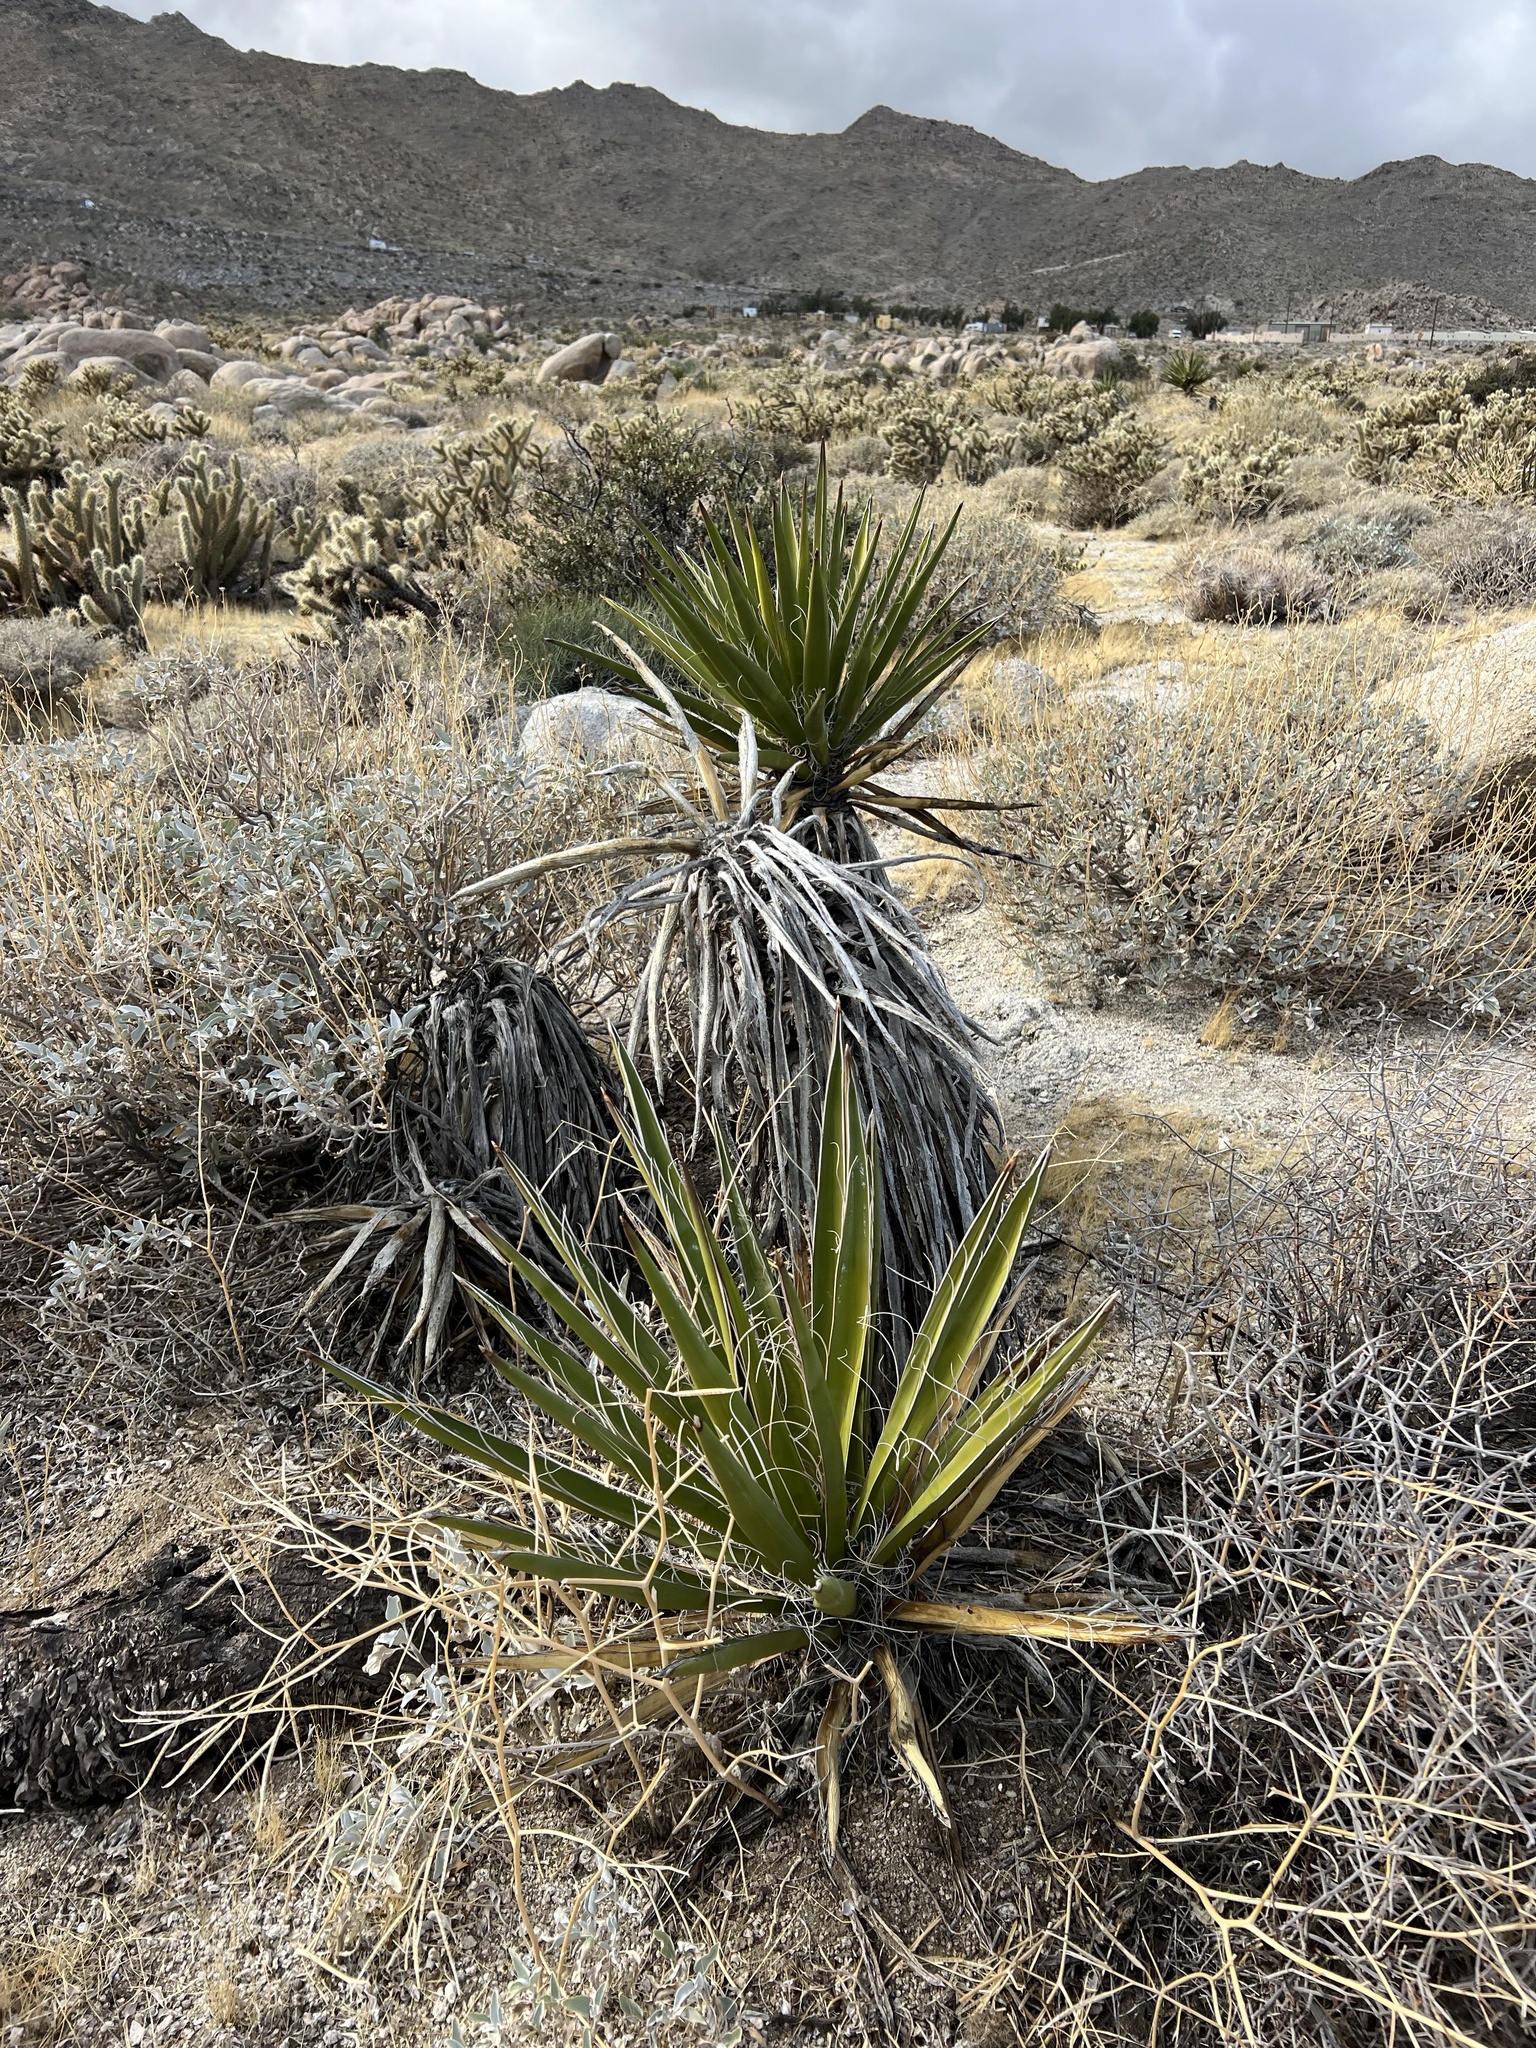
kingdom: Plantae
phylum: Tracheophyta
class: Liliopsida
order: Asparagales
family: Asparagaceae
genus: Yucca
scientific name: Yucca schidigera
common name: Mojave yucca
